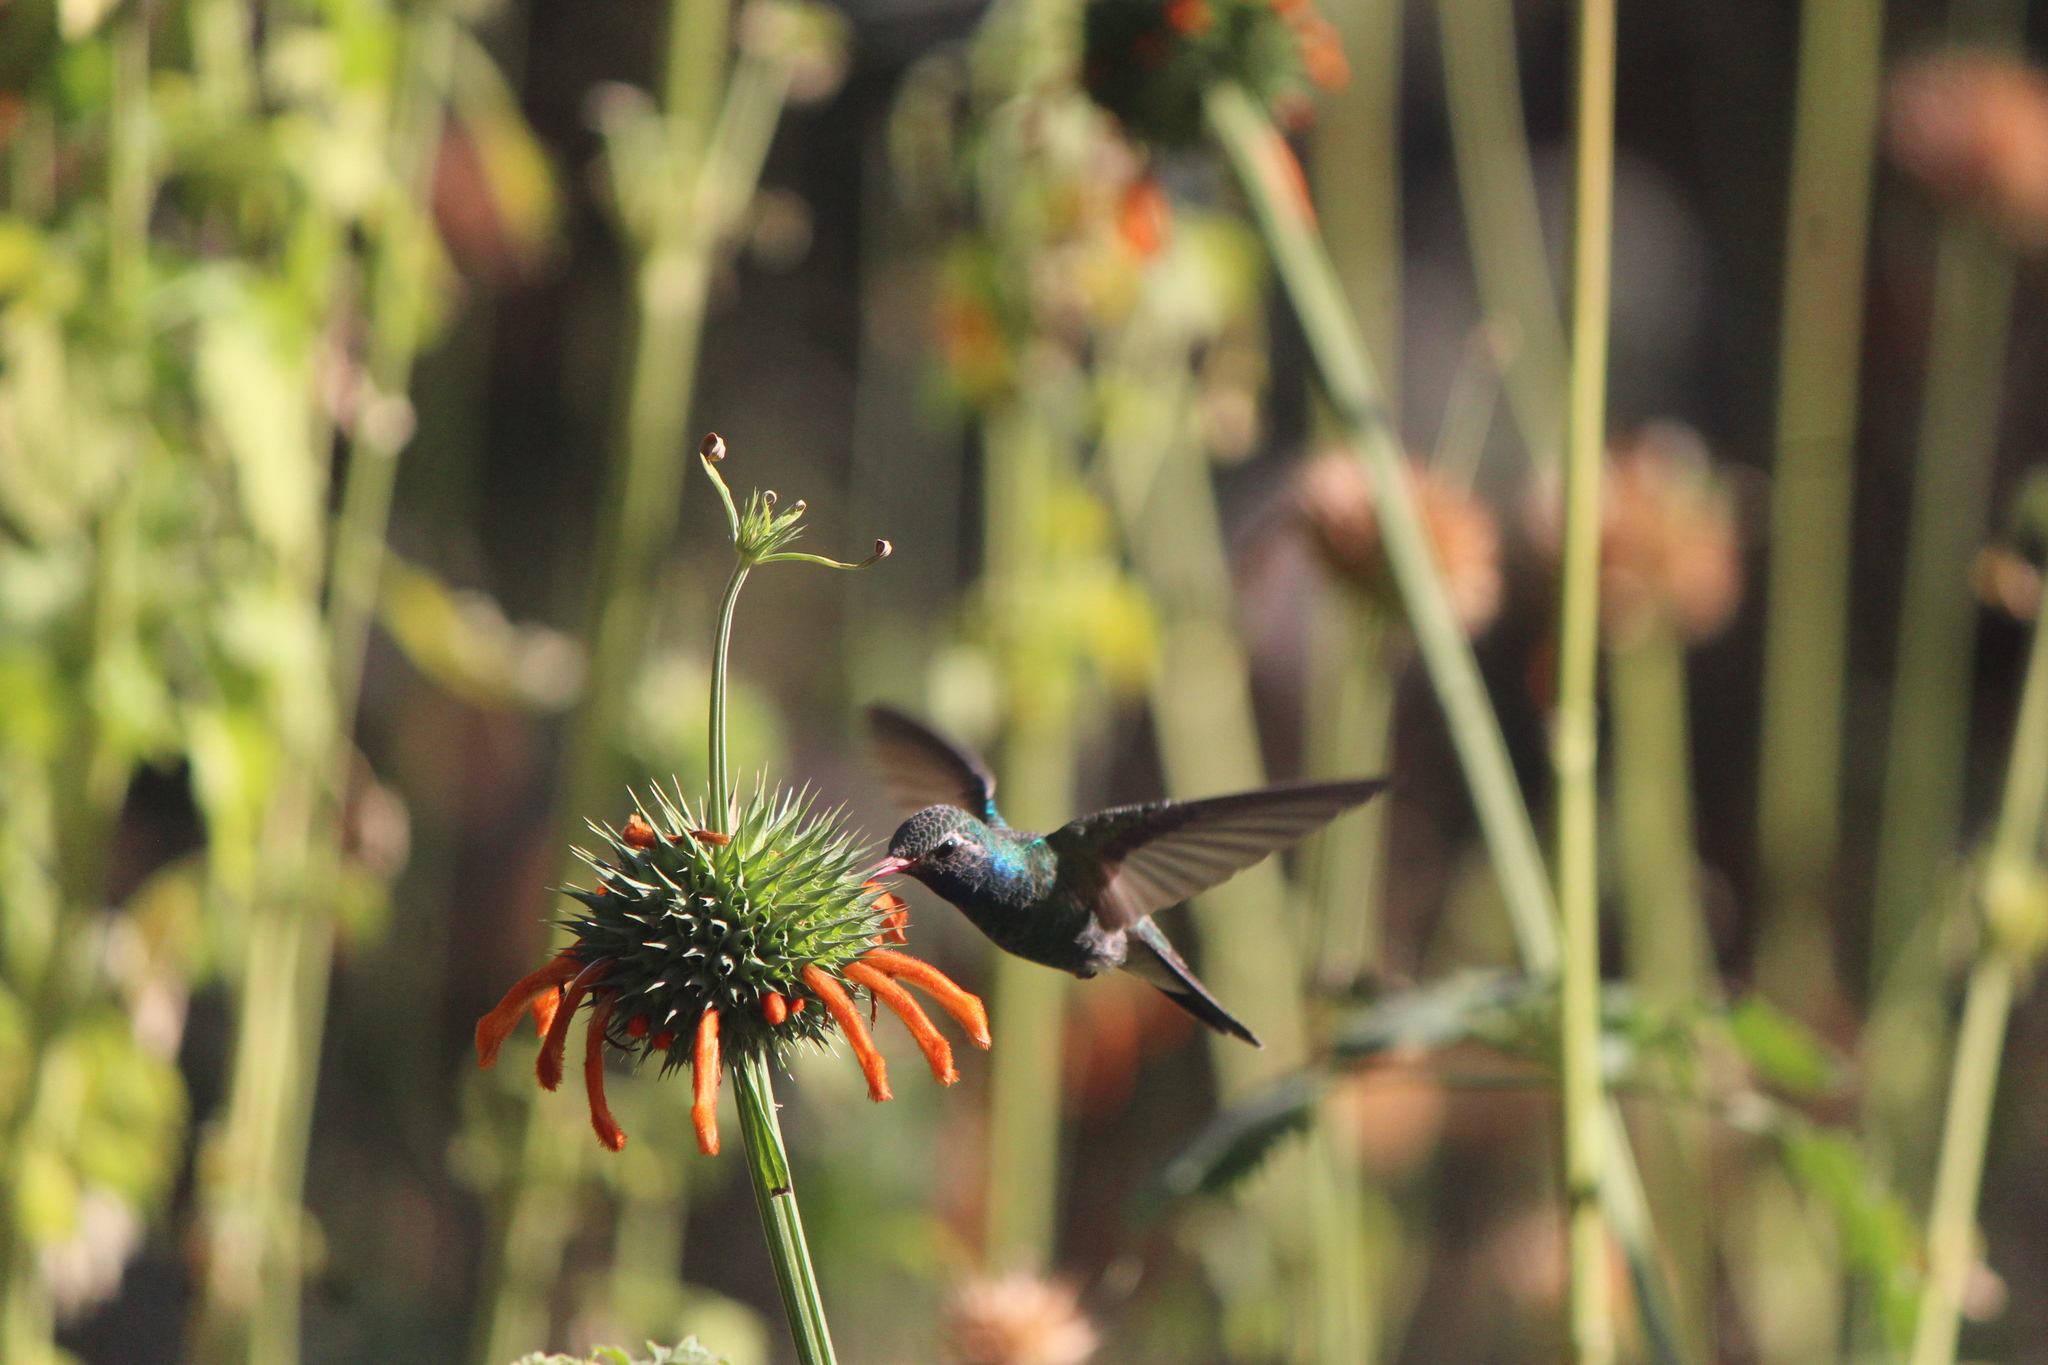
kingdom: Animalia
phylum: Chordata
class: Aves
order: Apodiformes
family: Trochilidae
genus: Cynanthus
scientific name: Cynanthus latirostris
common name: Broad-billed hummingbird
